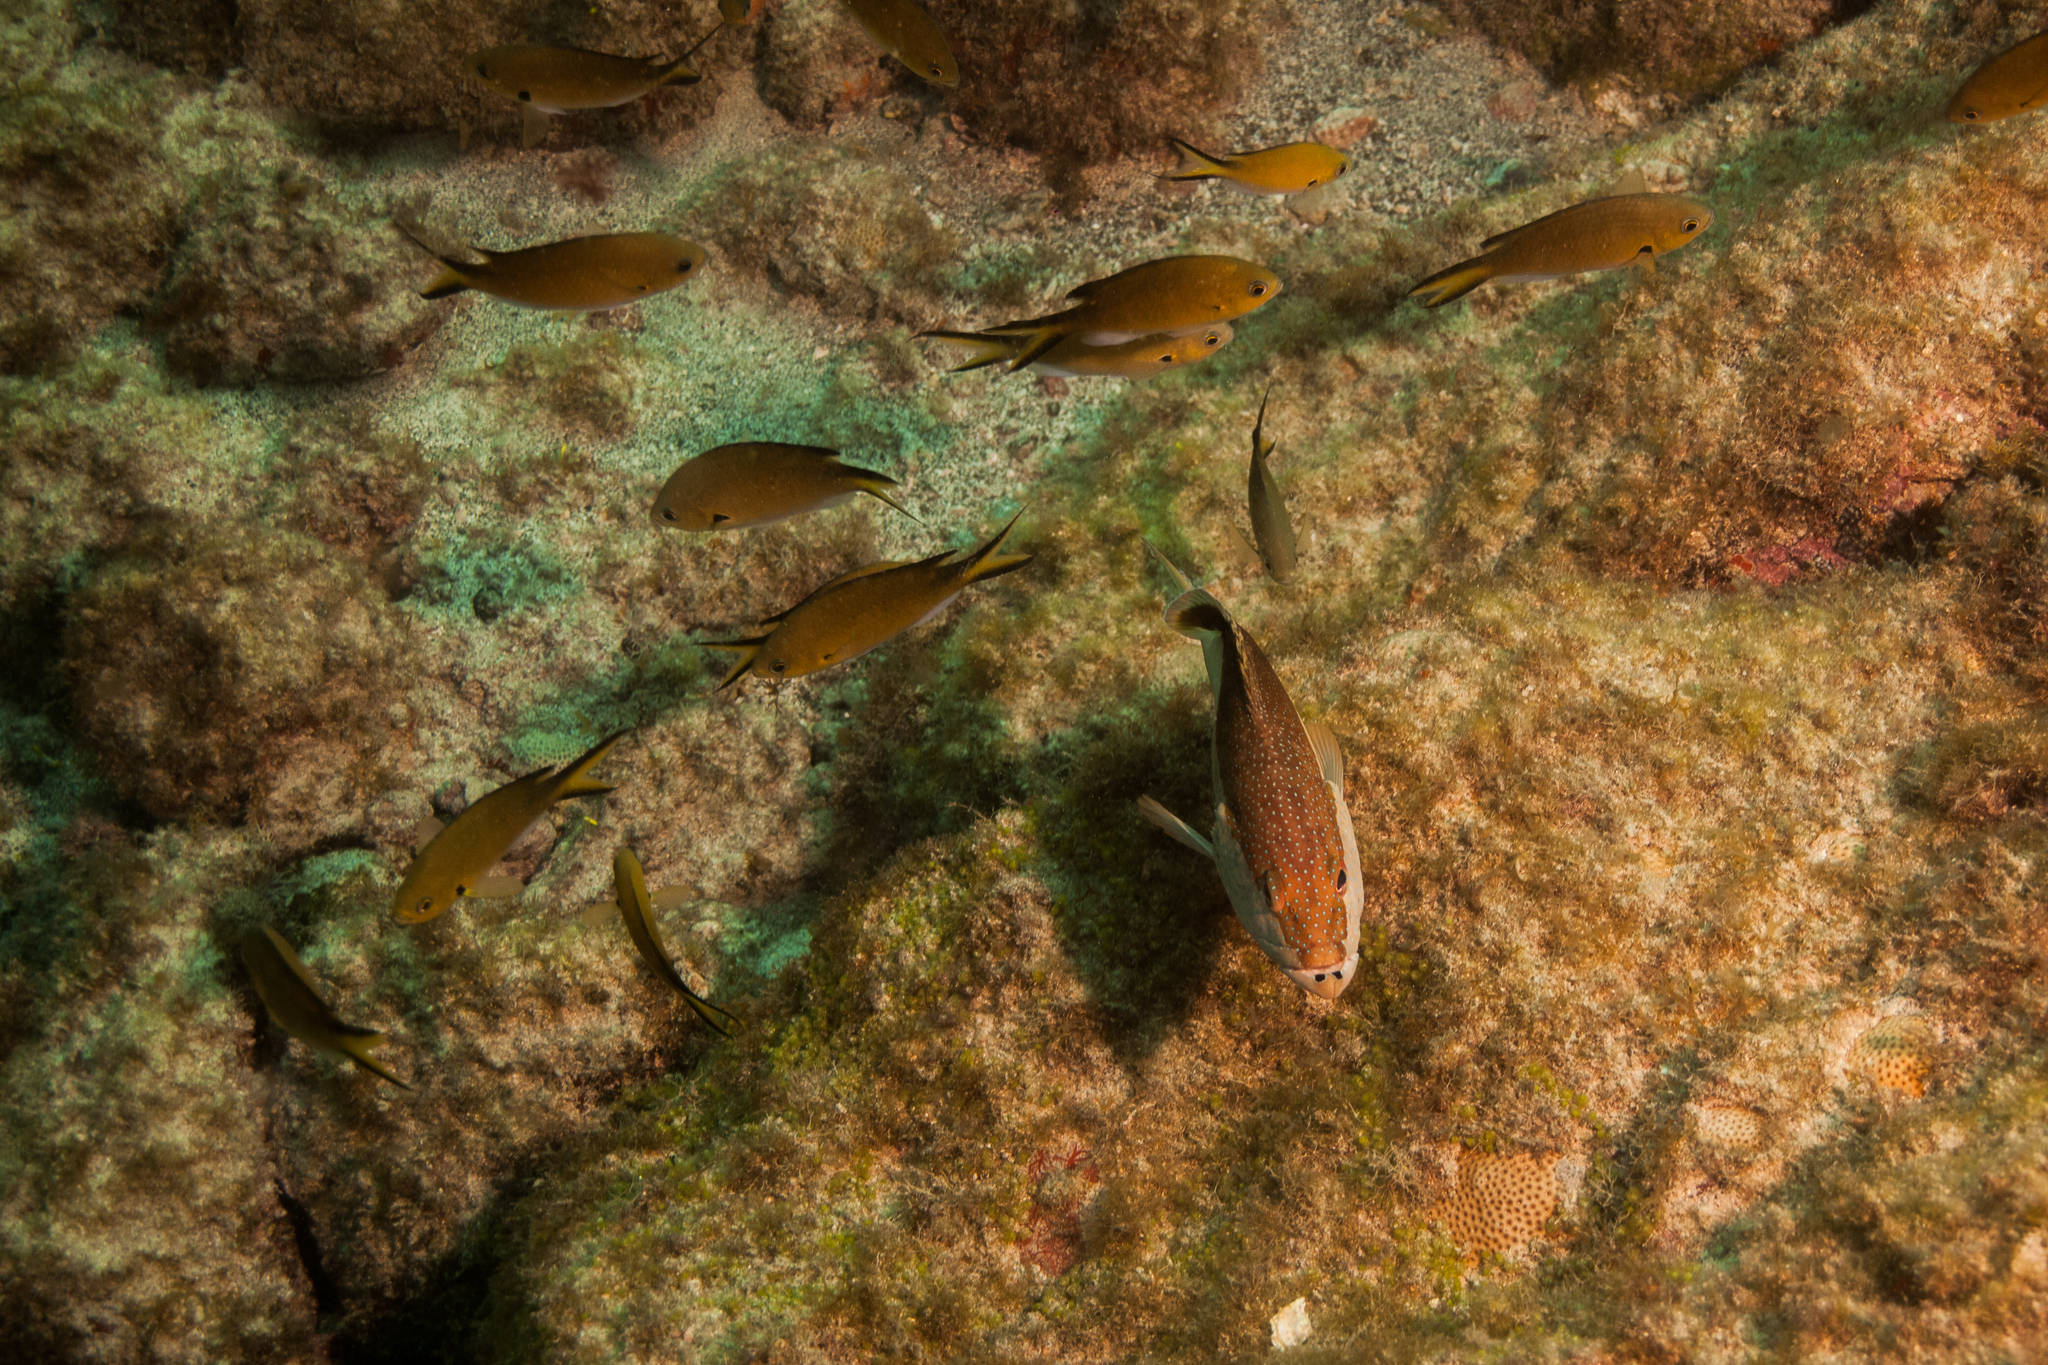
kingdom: Animalia
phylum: Chordata
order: Perciformes
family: Serranidae
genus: Cephalopholis
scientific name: Cephalopholis fulva
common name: Butterfish
